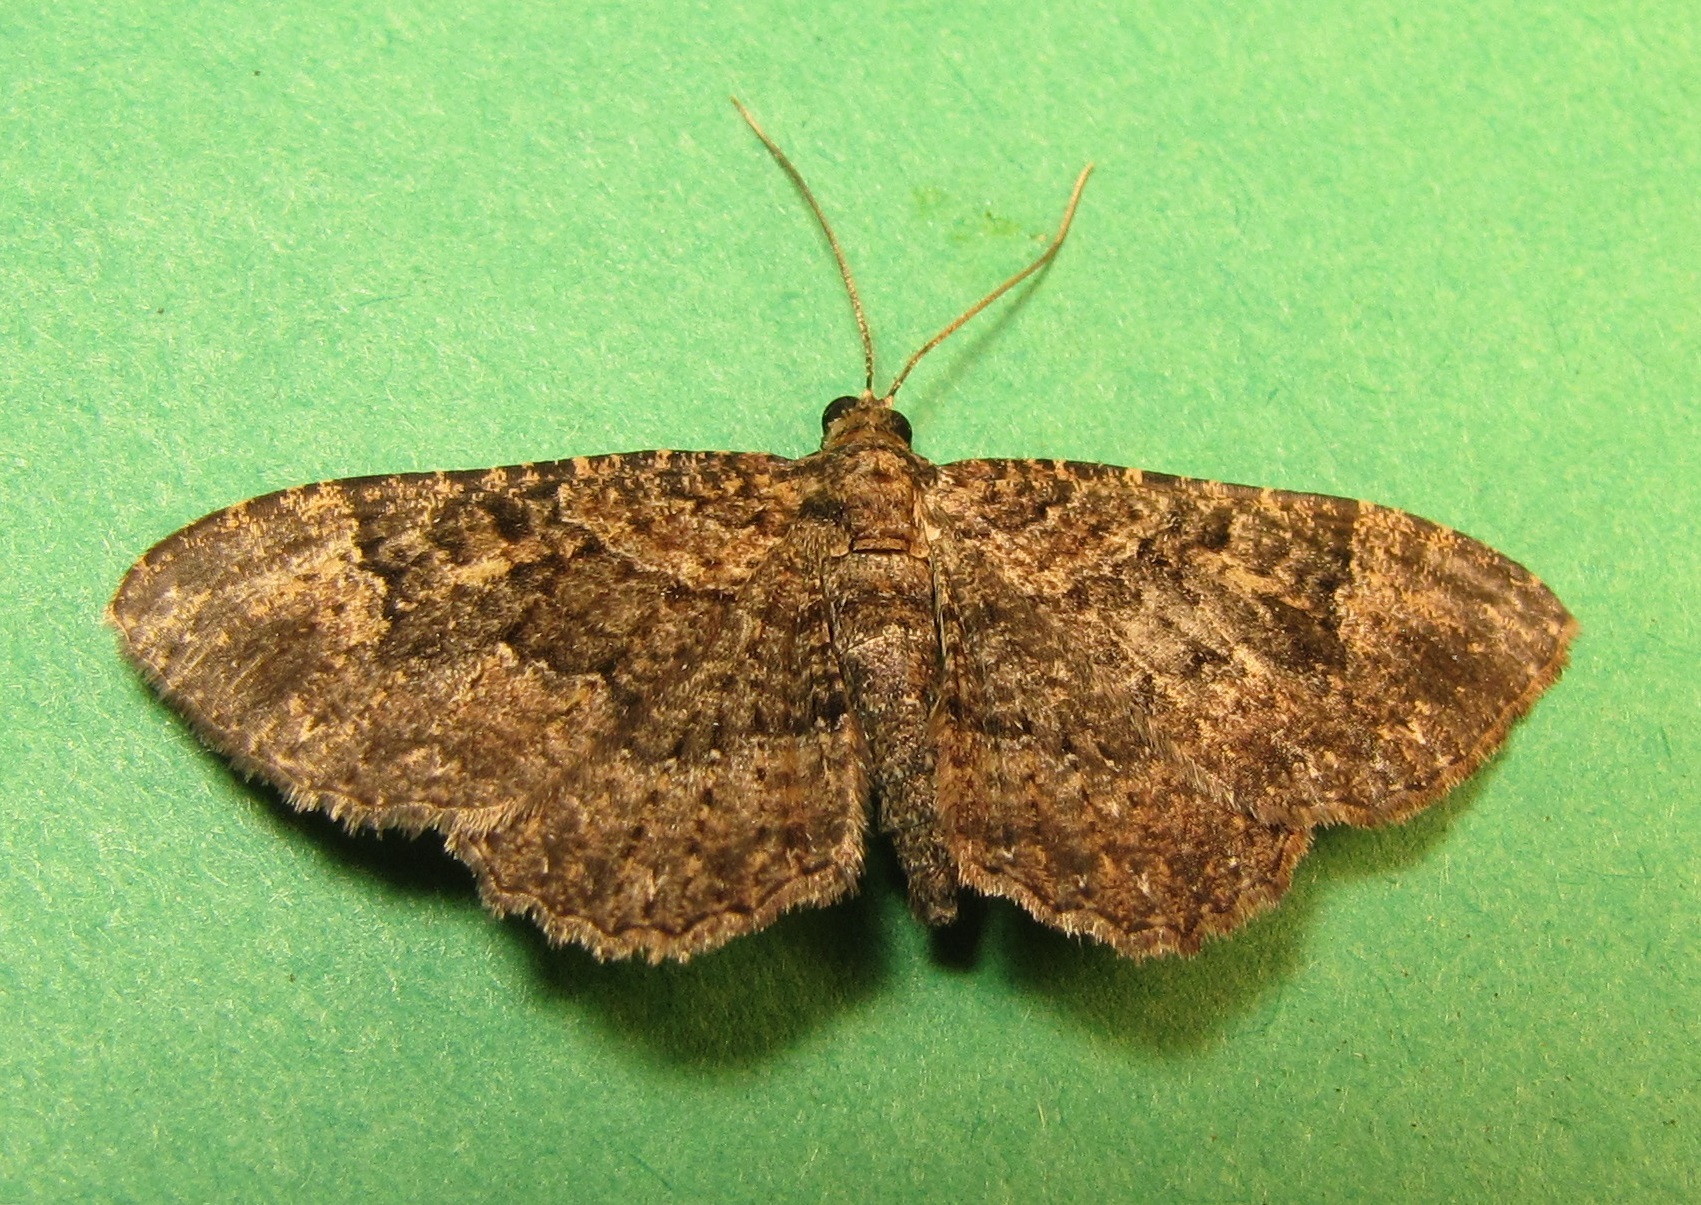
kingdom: Animalia
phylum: Arthropoda
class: Insecta
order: Lepidoptera
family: Geometridae
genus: Disclisioprocta
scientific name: Disclisioprocta stellata
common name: Somber carpet
